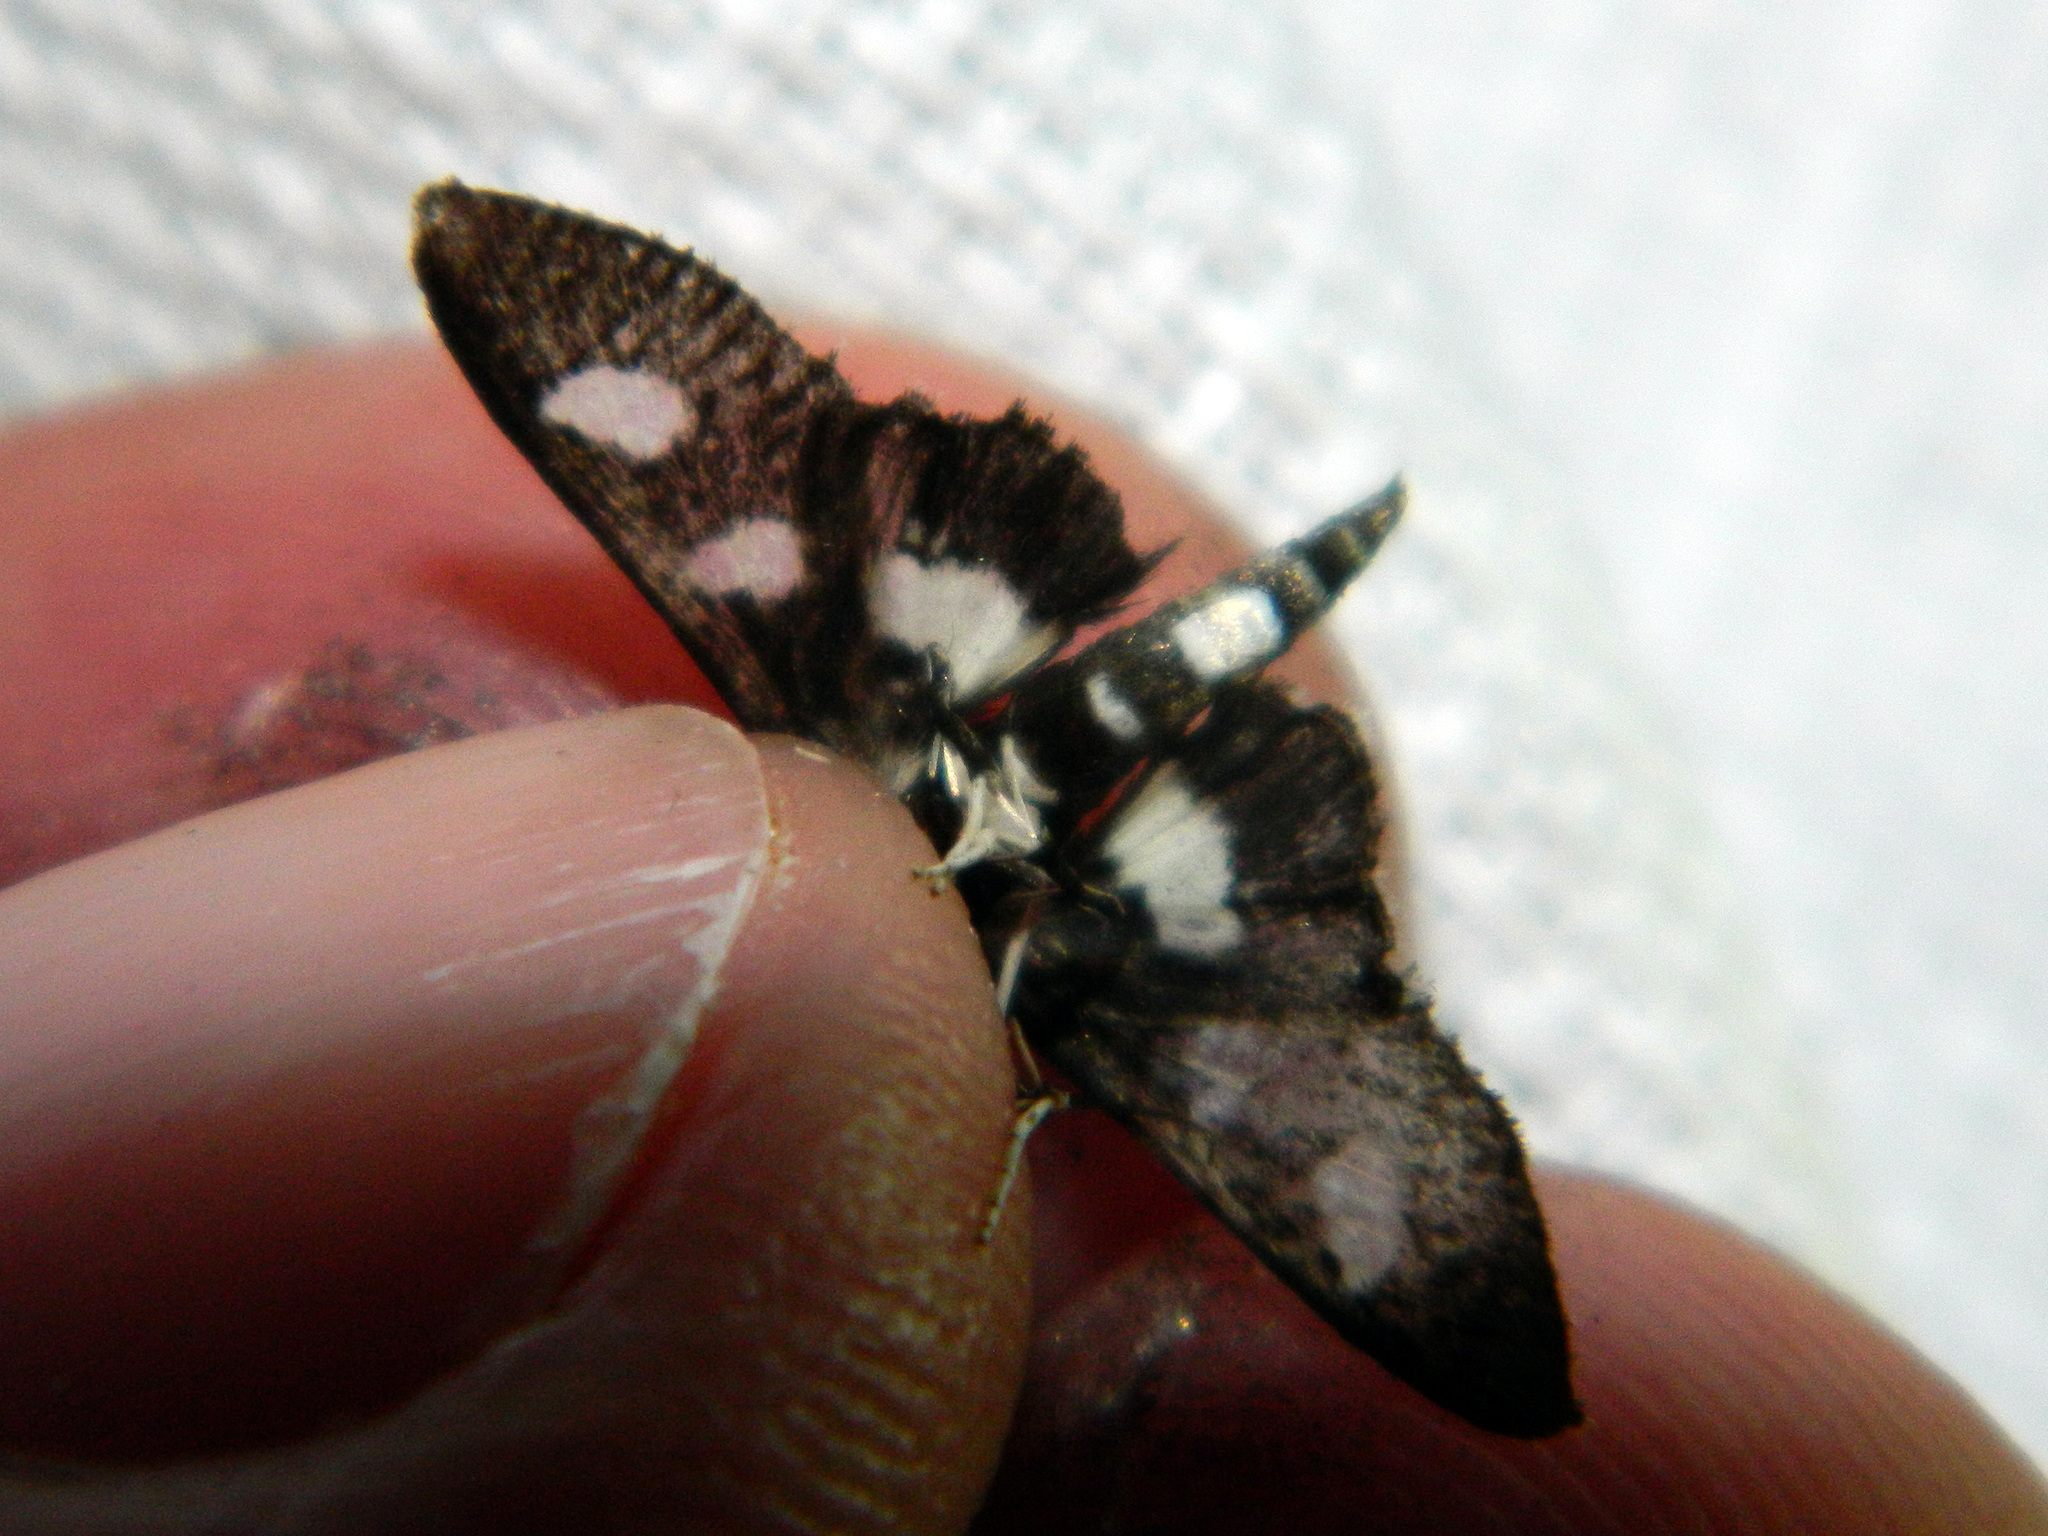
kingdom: Animalia
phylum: Arthropoda
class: Insecta
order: Lepidoptera
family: Crambidae
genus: Desmia
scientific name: Desmia funeralis
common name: Grape leaf folder moth
